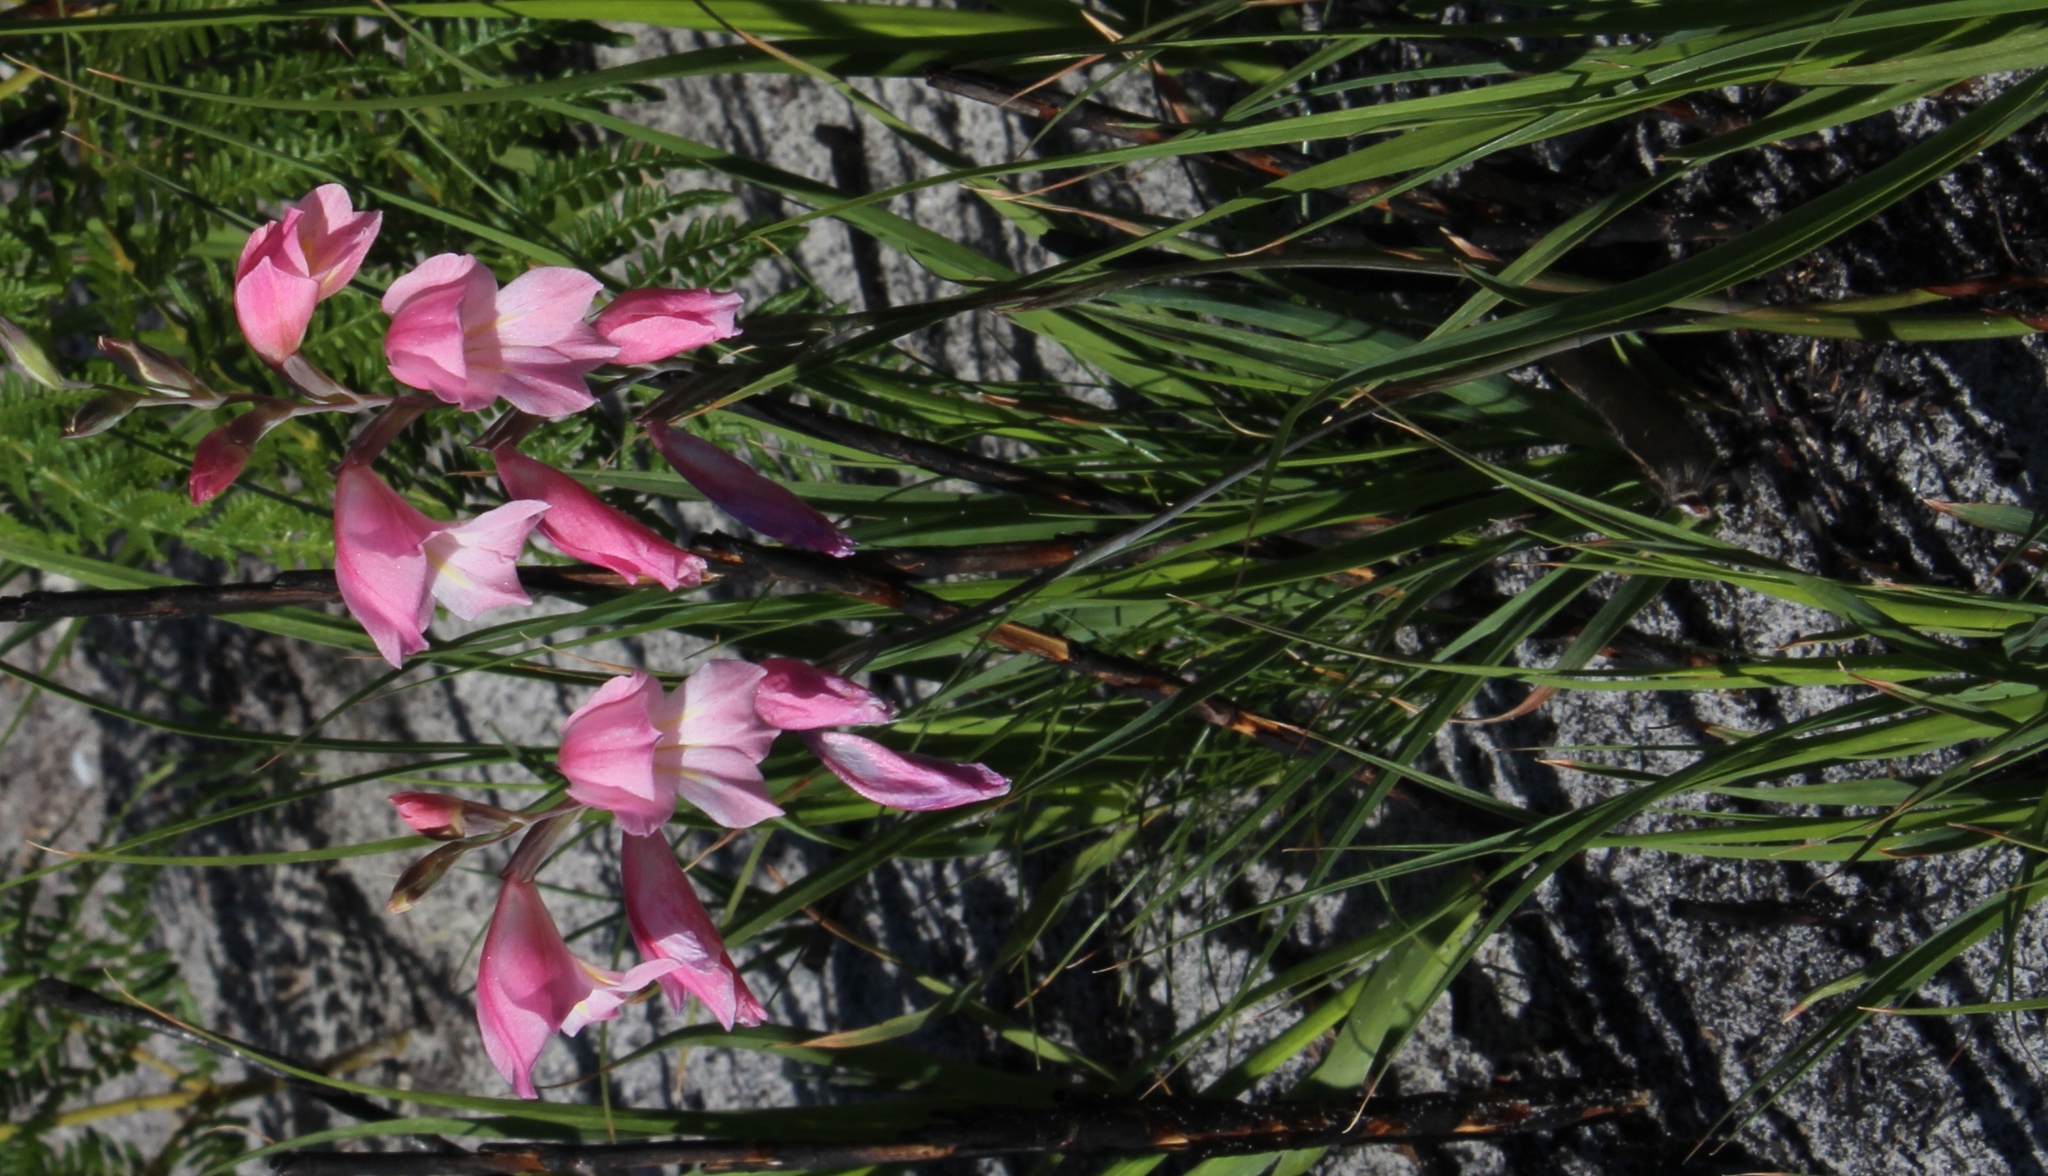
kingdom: Plantae
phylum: Tracheophyta
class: Liliopsida
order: Asparagales
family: Iridaceae
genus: Gladiolus
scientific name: Gladiolus brevifolius
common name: March pypie
